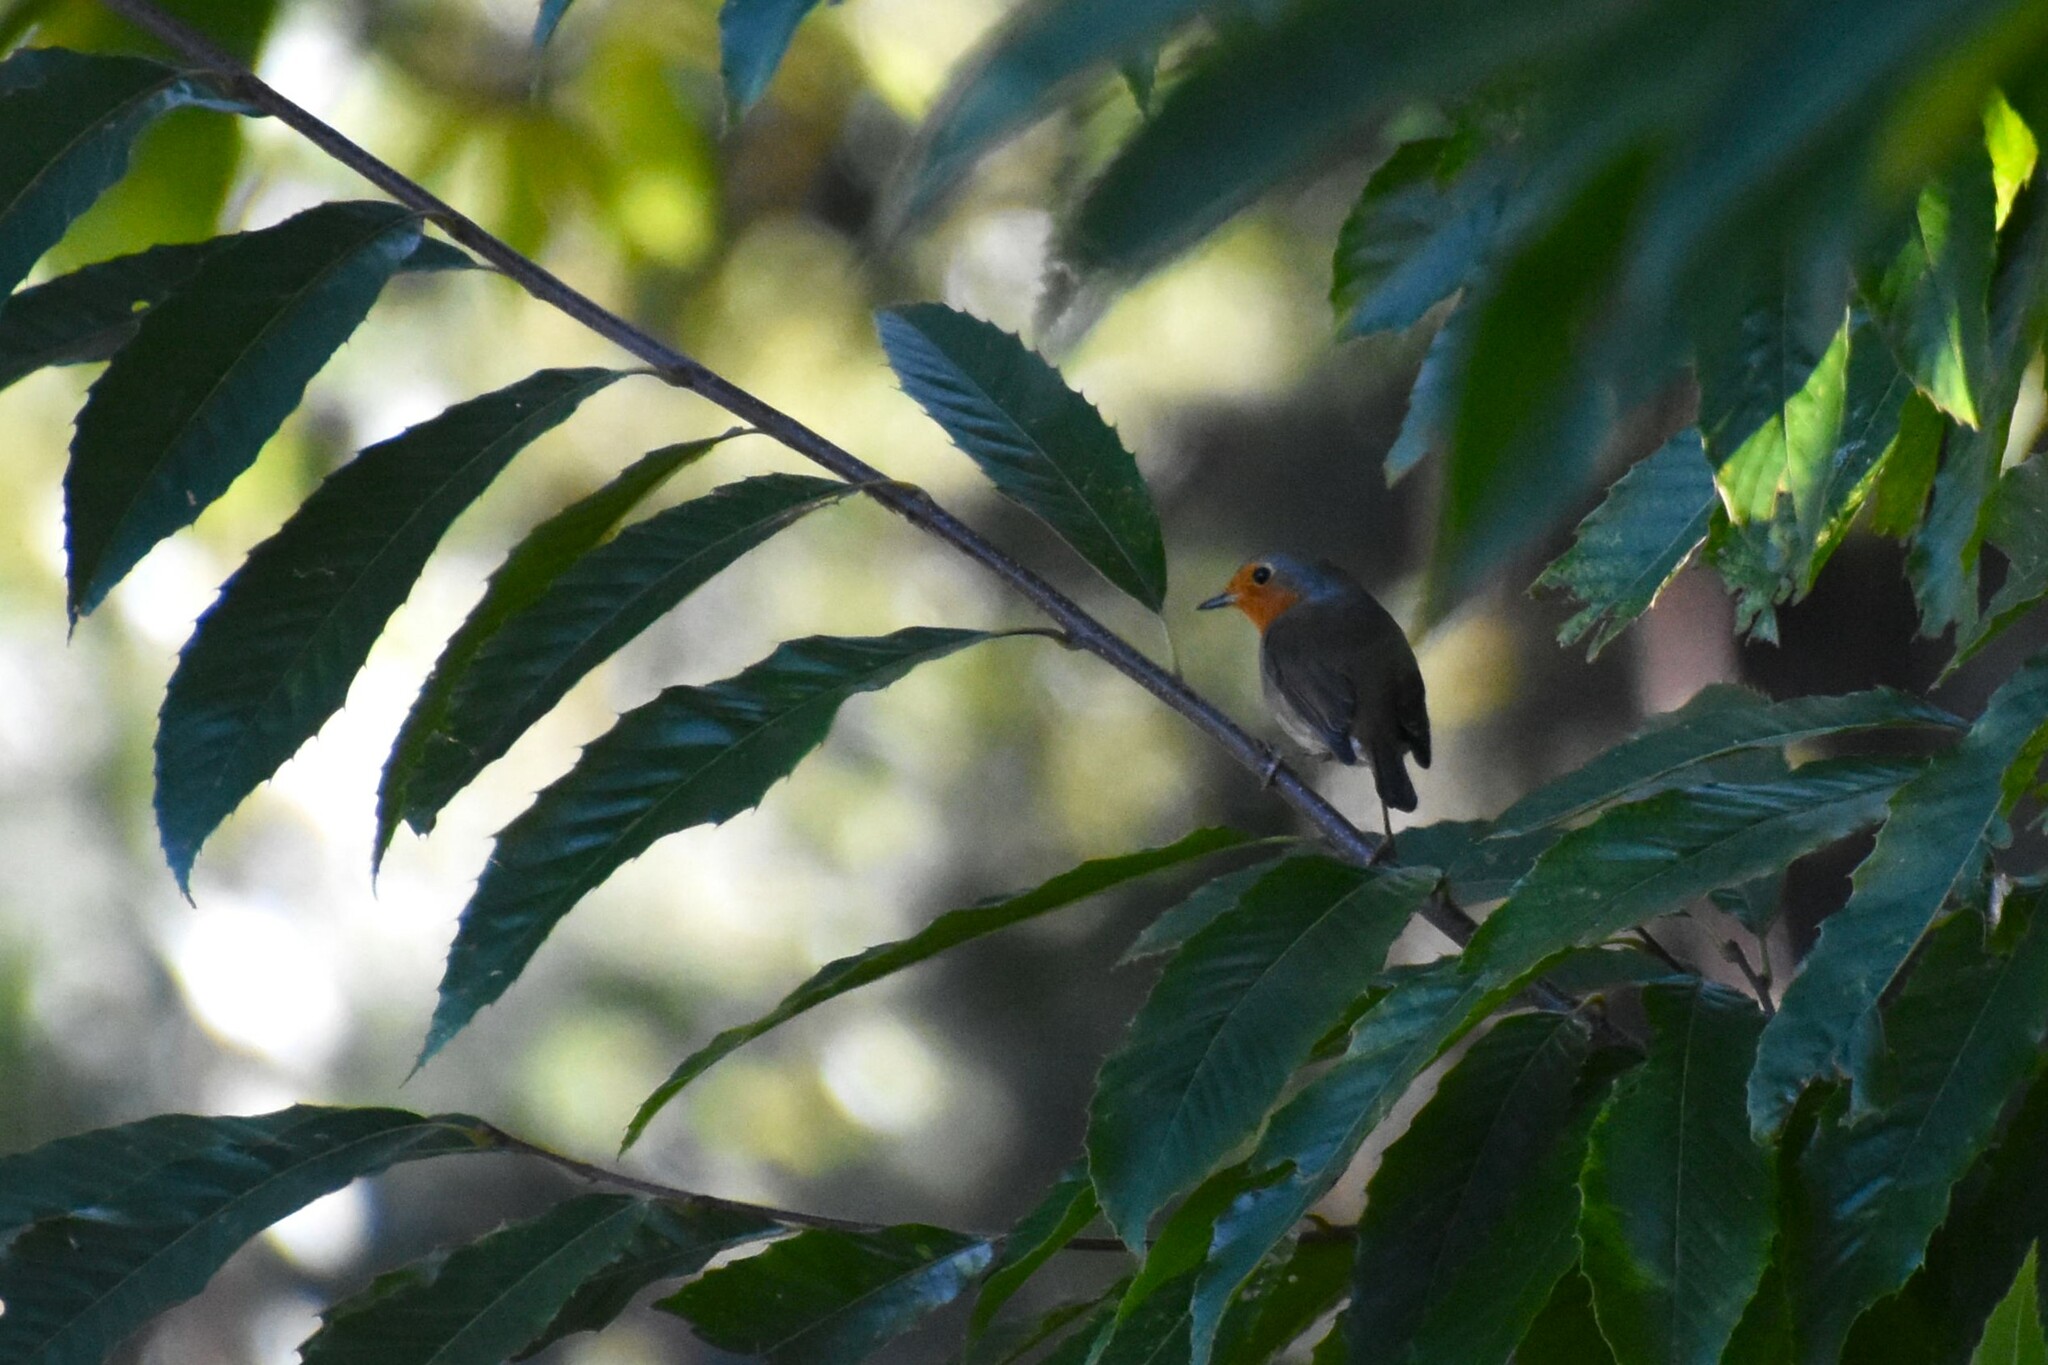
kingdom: Animalia
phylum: Chordata
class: Aves
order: Passeriformes
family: Muscicapidae
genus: Erithacus
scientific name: Erithacus rubecula
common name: European robin
